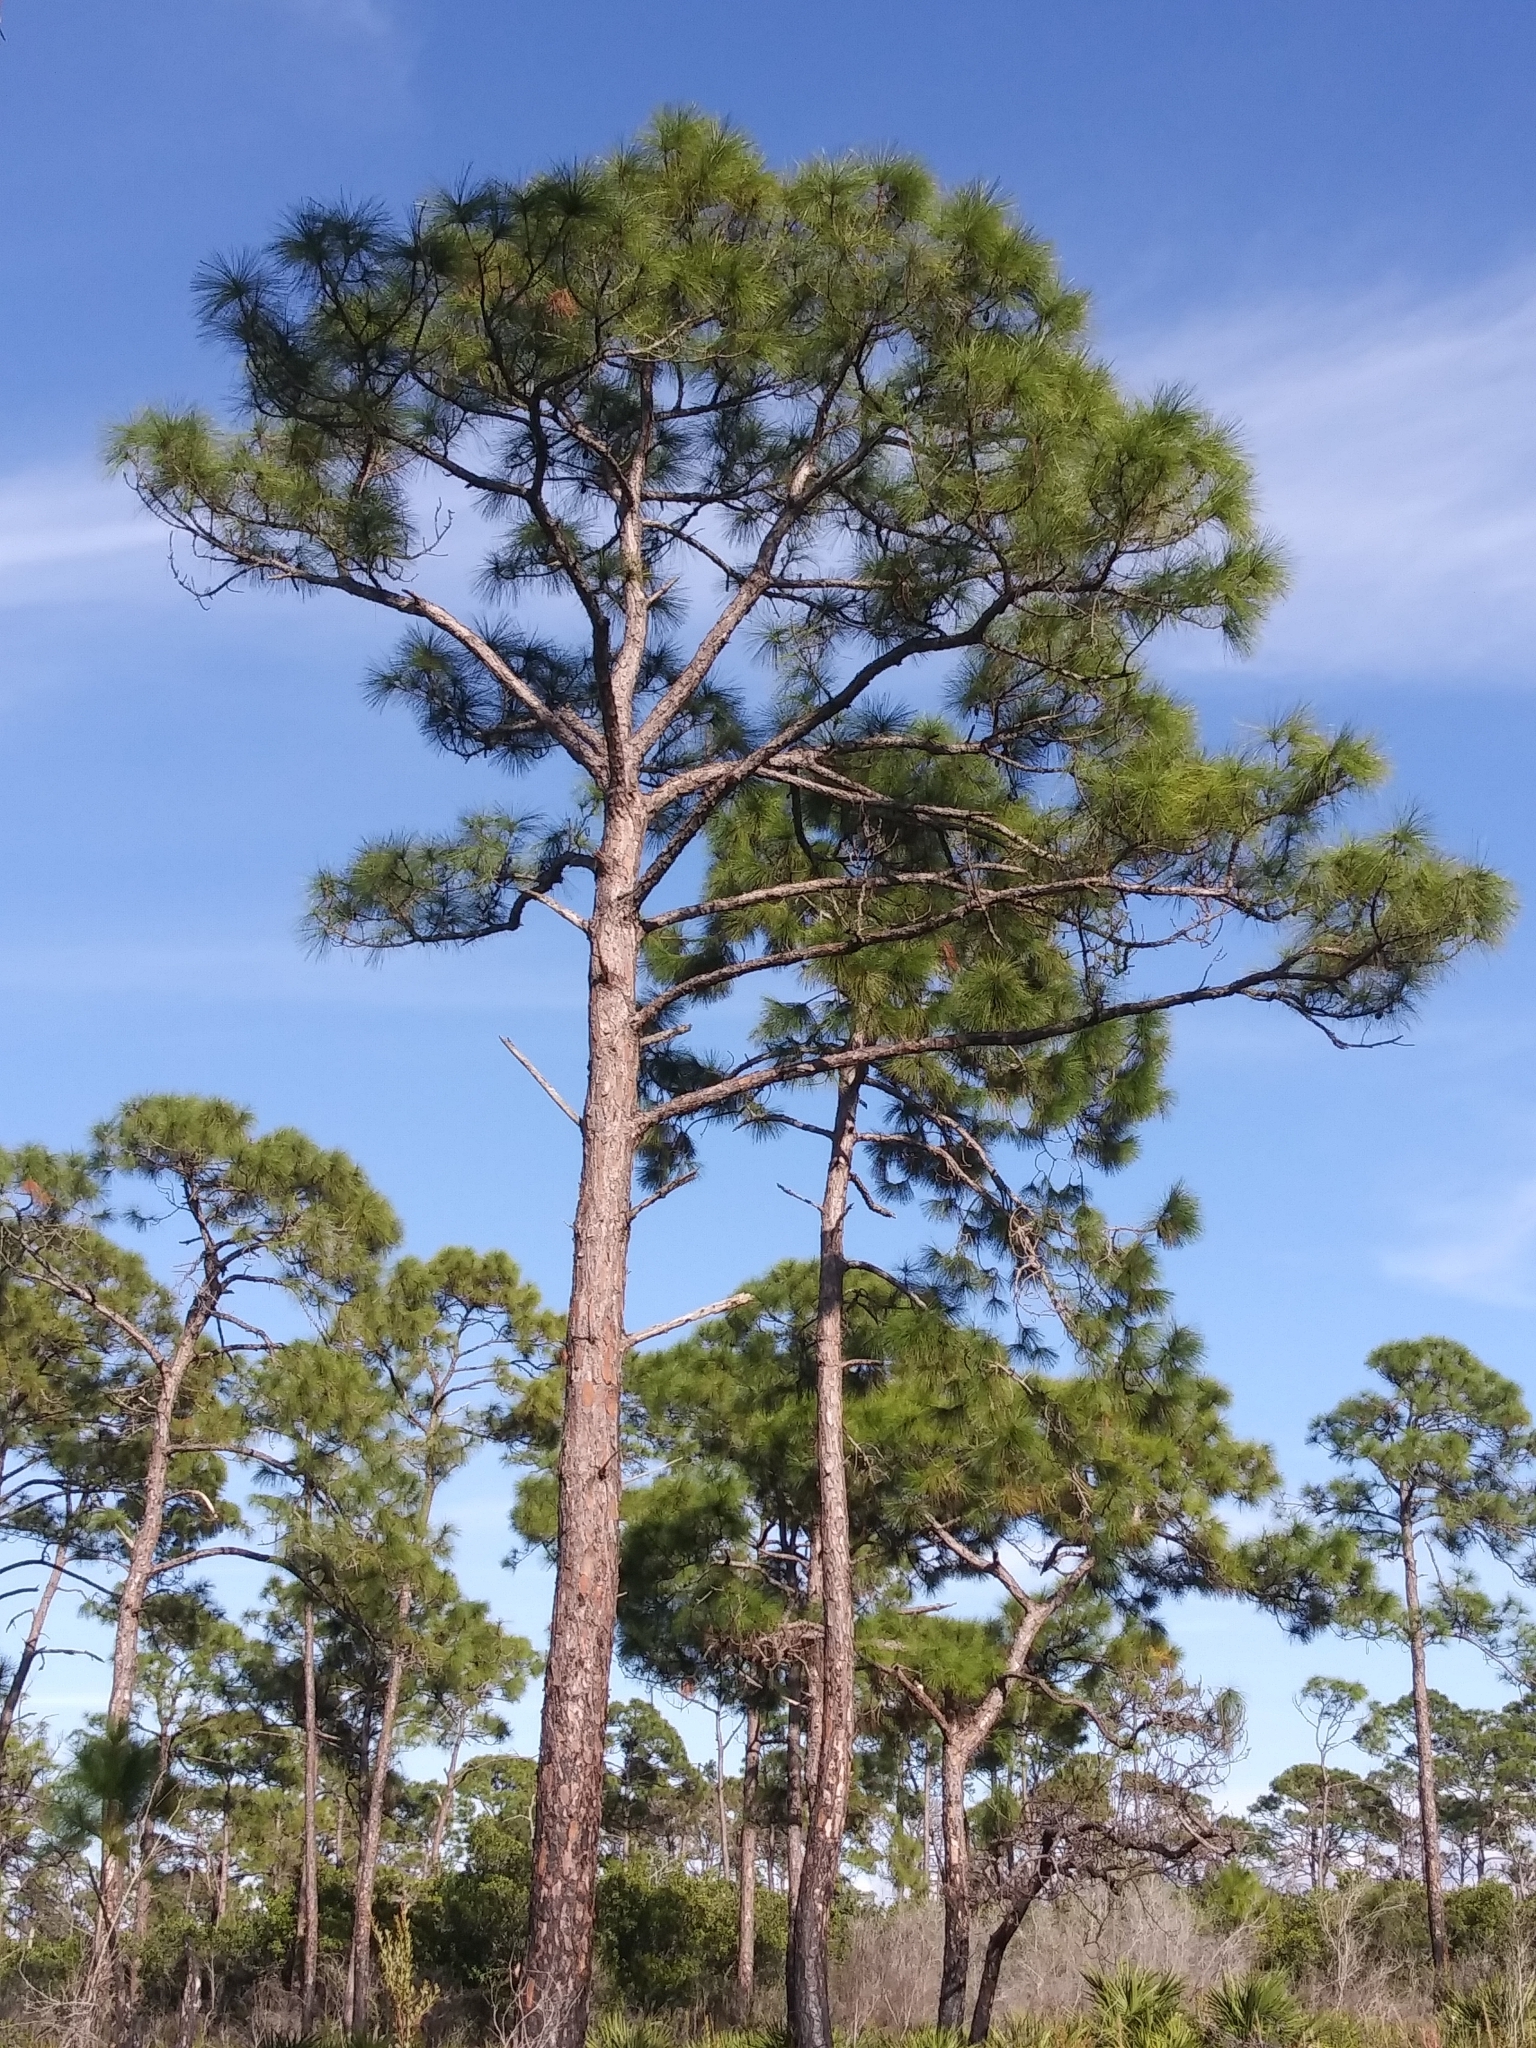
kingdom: Plantae
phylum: Tracheophyta
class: Pinopsida
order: Pinales
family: Pinaceae
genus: Pinus
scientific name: Pinus elliottii
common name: Slash pine
